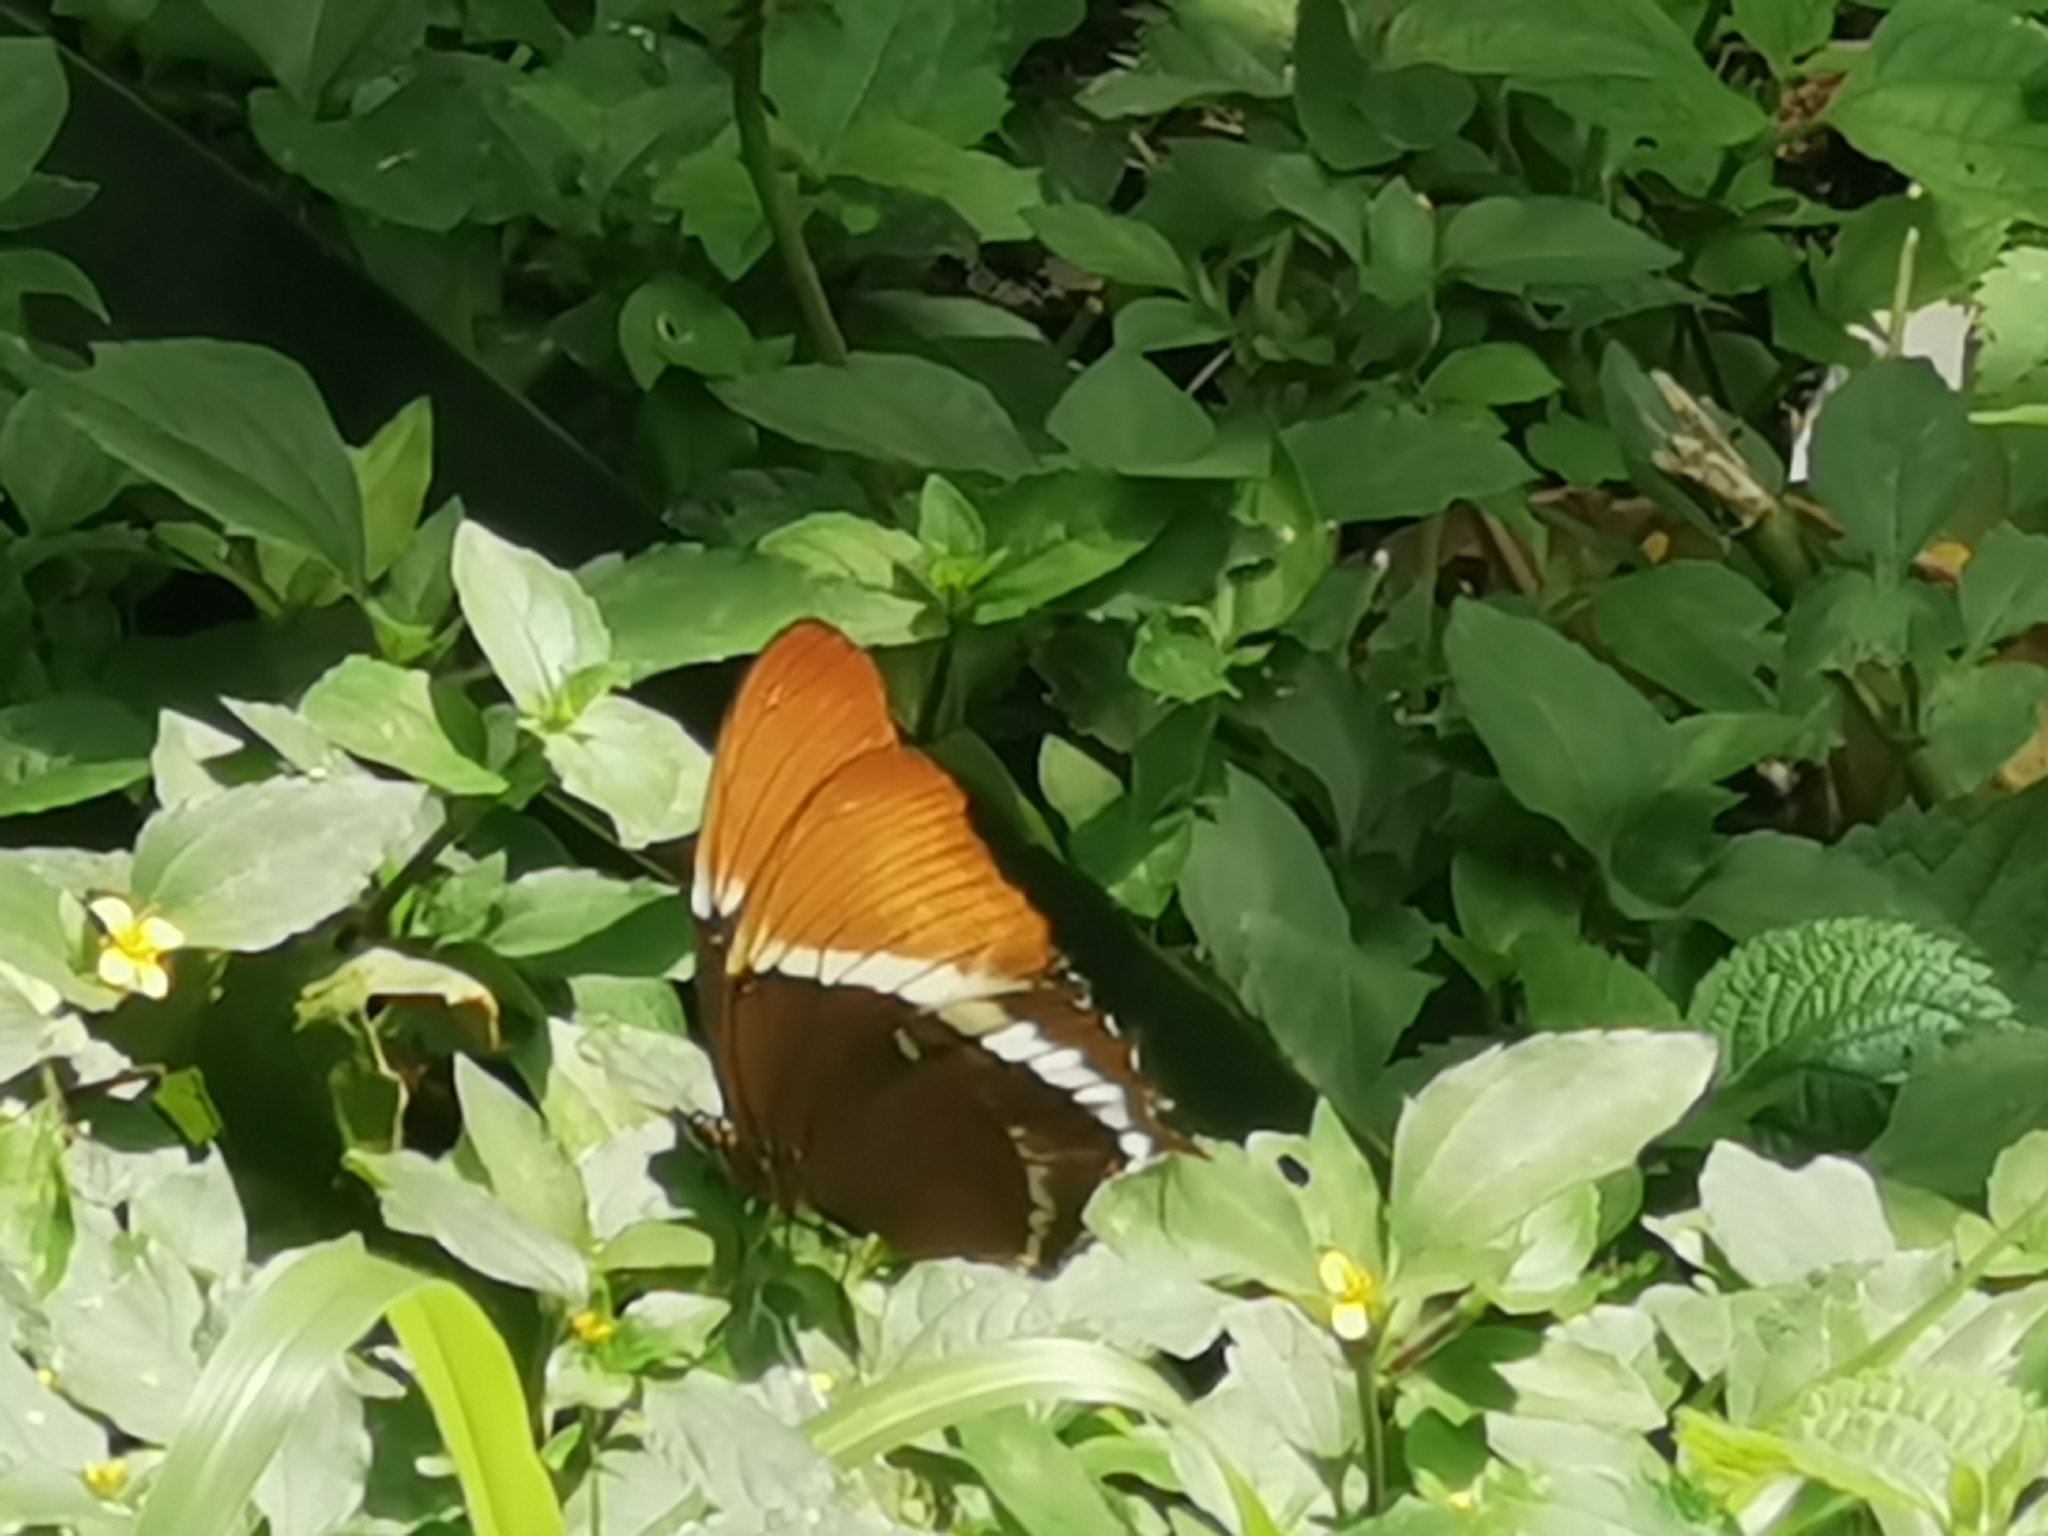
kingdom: Animalia
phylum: Arthropoda
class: Insecta
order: Lepidoptera
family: Nymphalidae
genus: Siproeta
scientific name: Siproeta epaphus
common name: Rusty-tipped page
